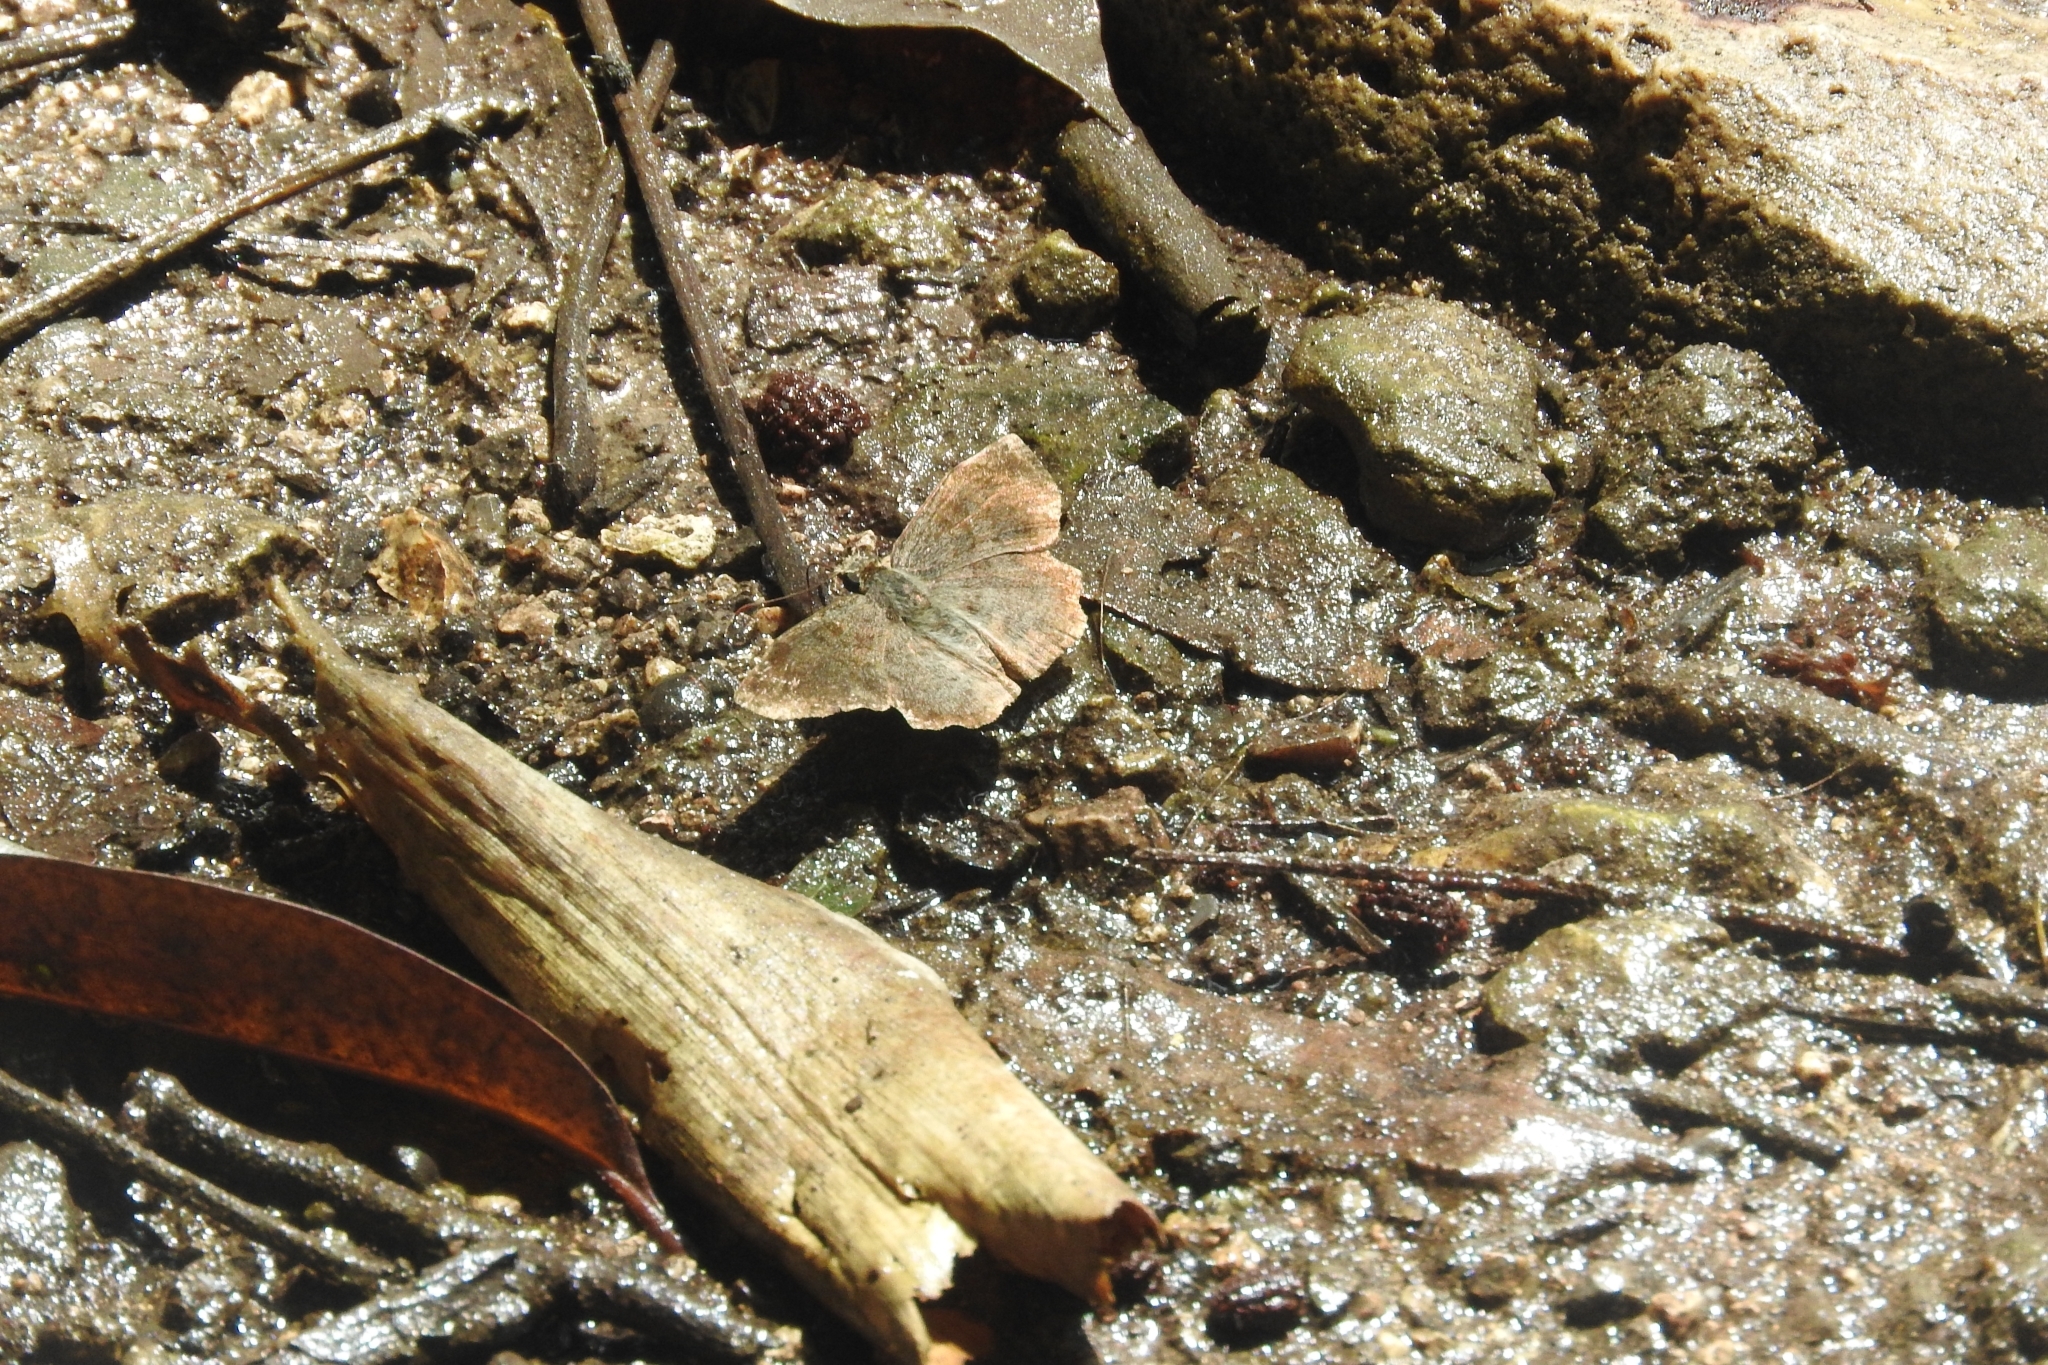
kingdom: Animalia
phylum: Arthropoda
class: Insecta
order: Lepidoptera
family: Hesperiidae
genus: Antigonus
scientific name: Antigonus erosus
